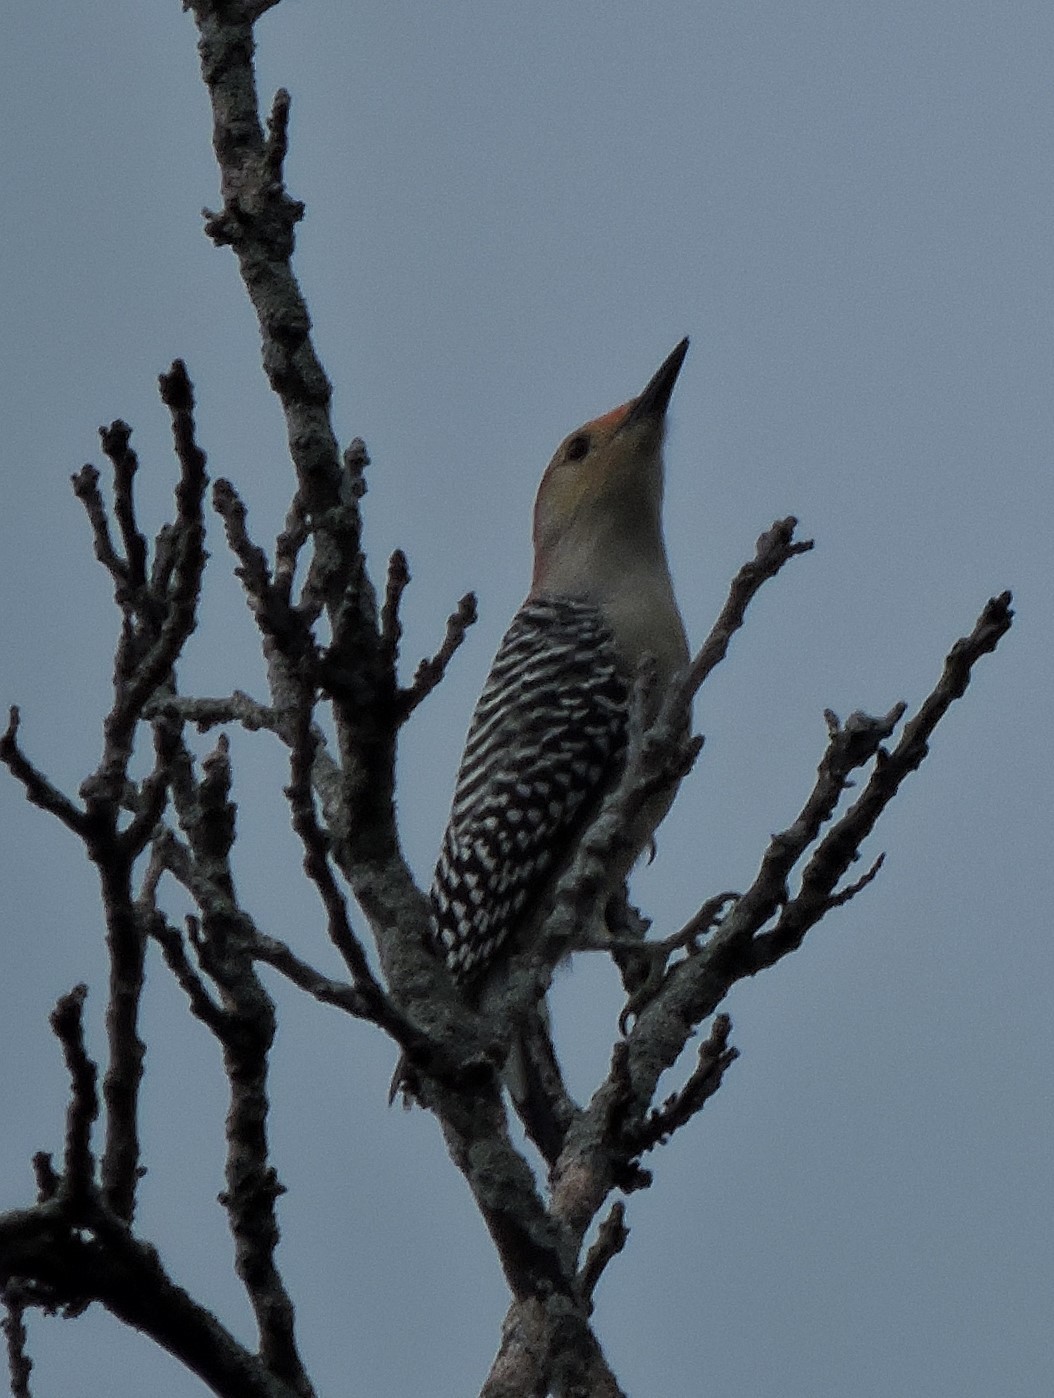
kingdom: Animalia
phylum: Chordata
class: Aves
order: Piciformes
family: Picidae
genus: Melanerpes
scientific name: Melanerpes carolinus
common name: Red-bellied woodpecker
